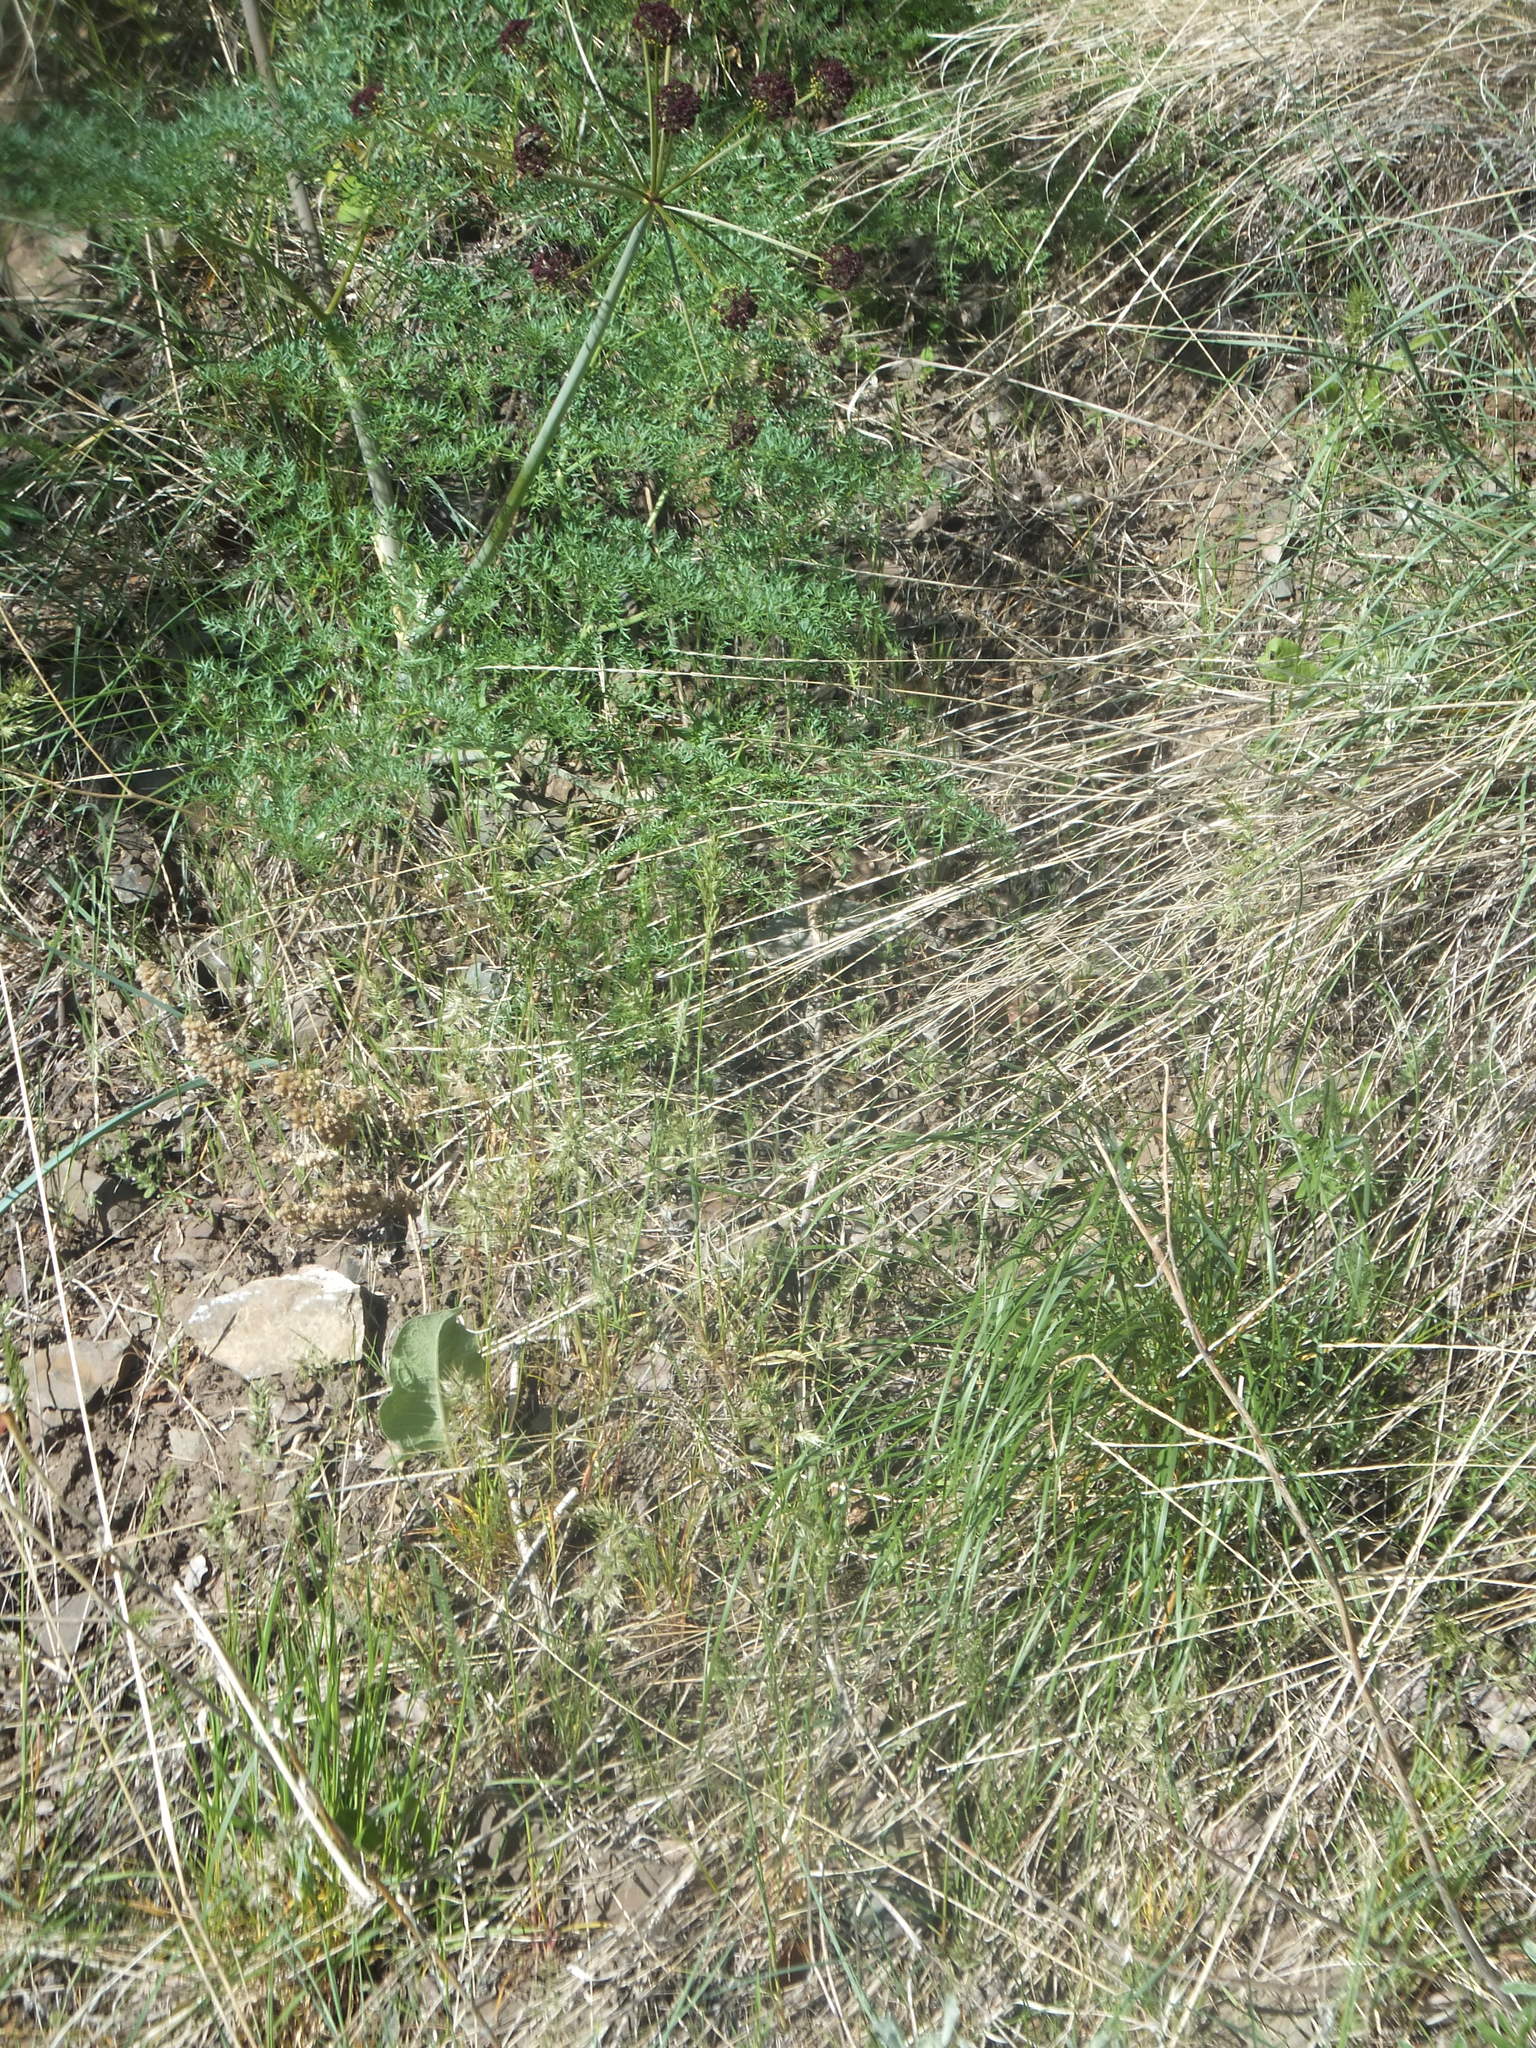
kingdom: Plantae
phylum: Tracheophyta
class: Magnoliopsida
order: Apiales
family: Apiaceae
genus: Lomatium
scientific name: Lomatium multifidum
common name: Carrot-leaved biscuitroot
